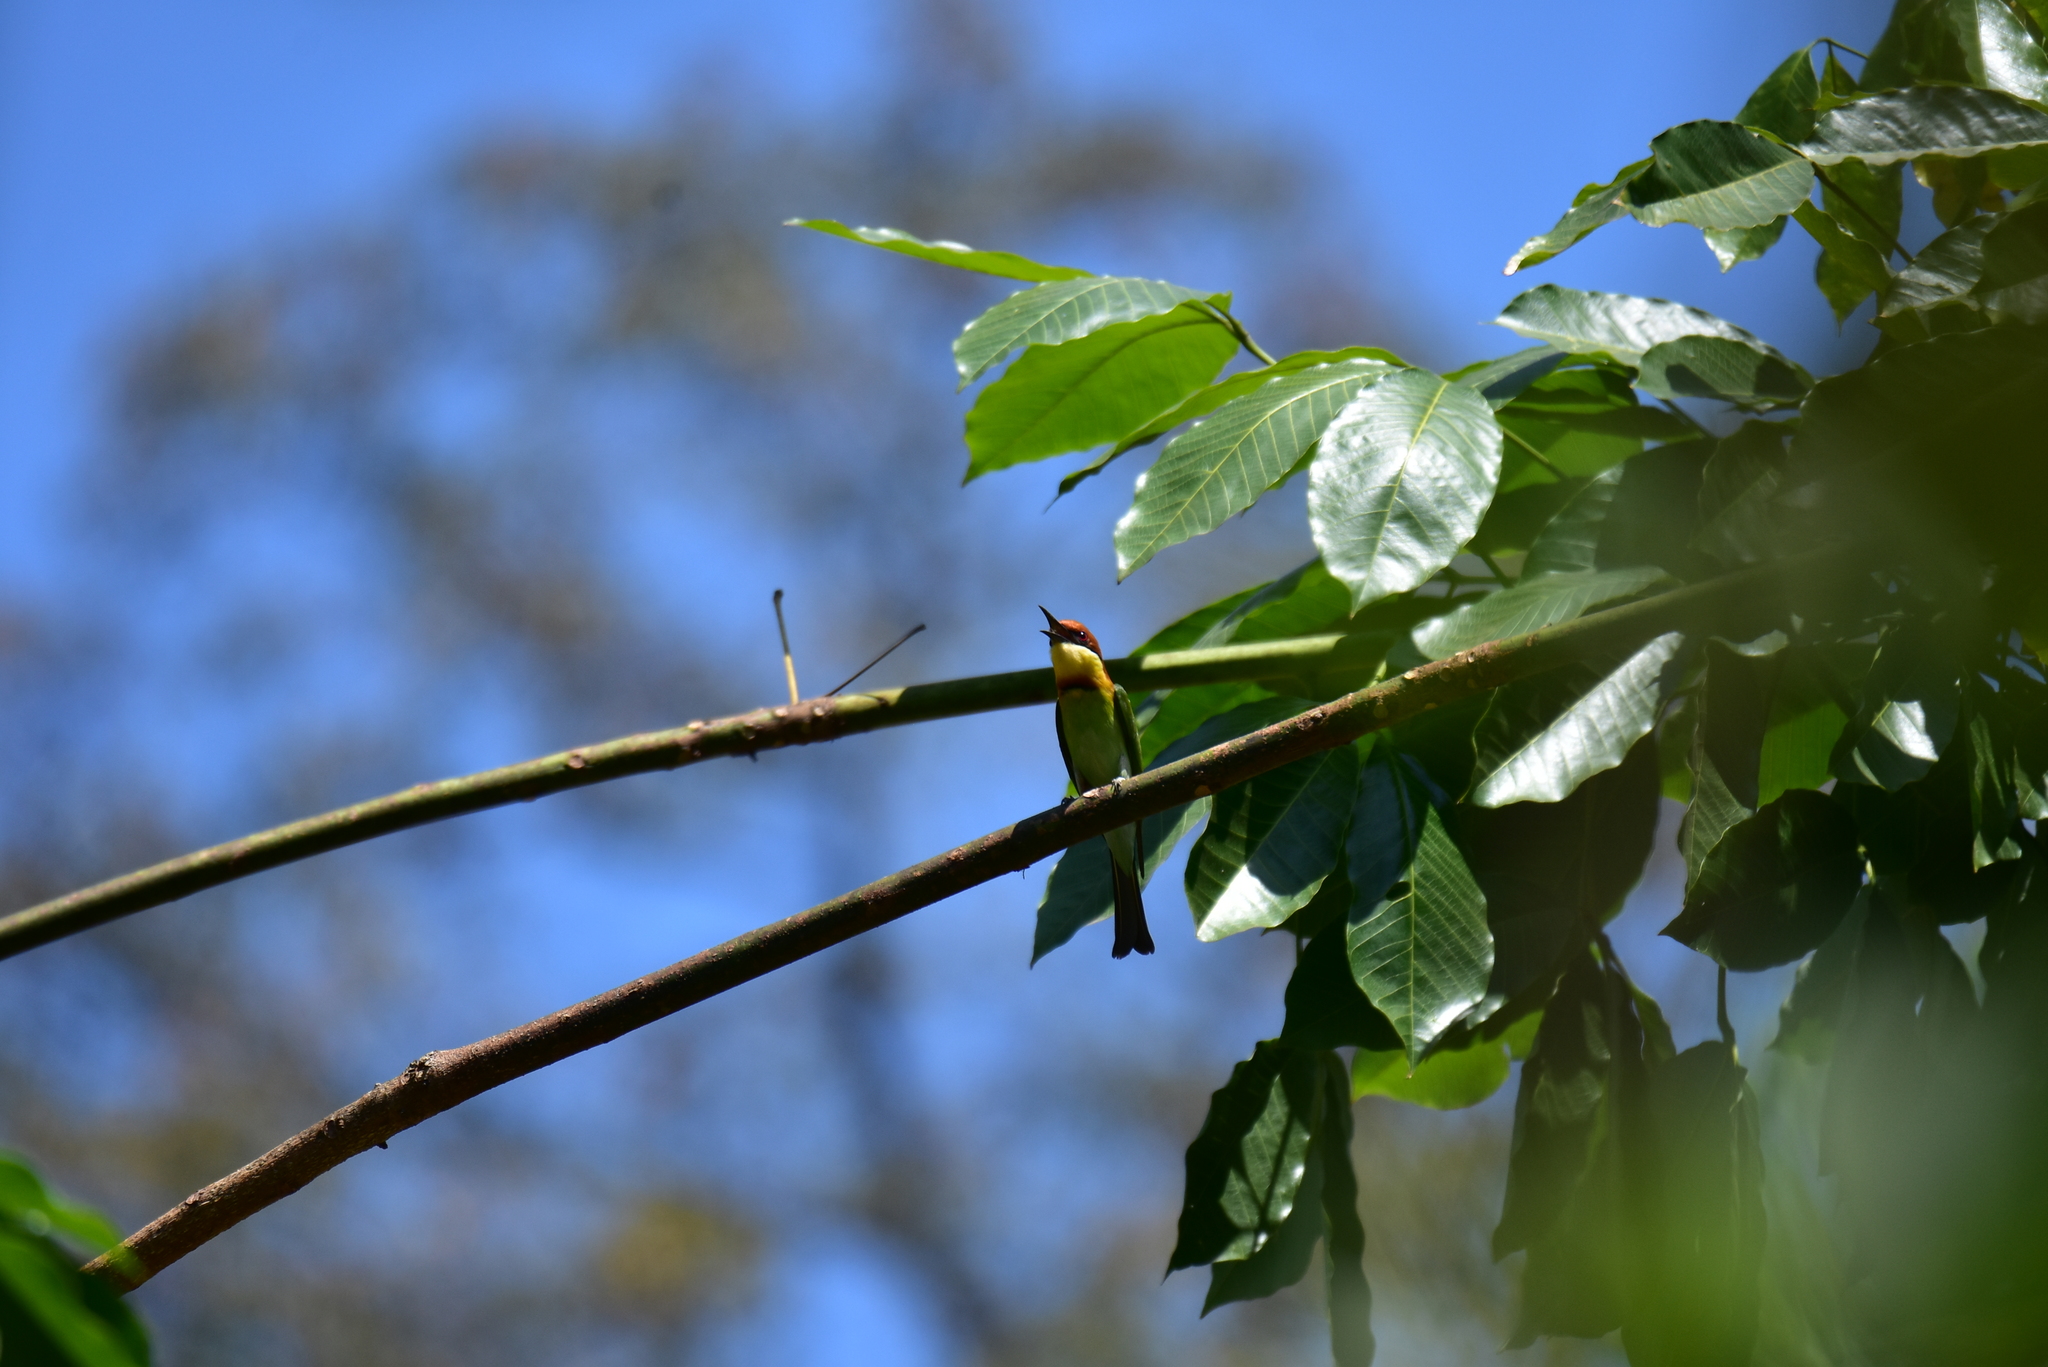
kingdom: Animalia
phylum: Chordata
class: Aves
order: Coraciiformes
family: Meropidae
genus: Merops
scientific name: Merops leschenaulti
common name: Chestnut-headed bee-eater
